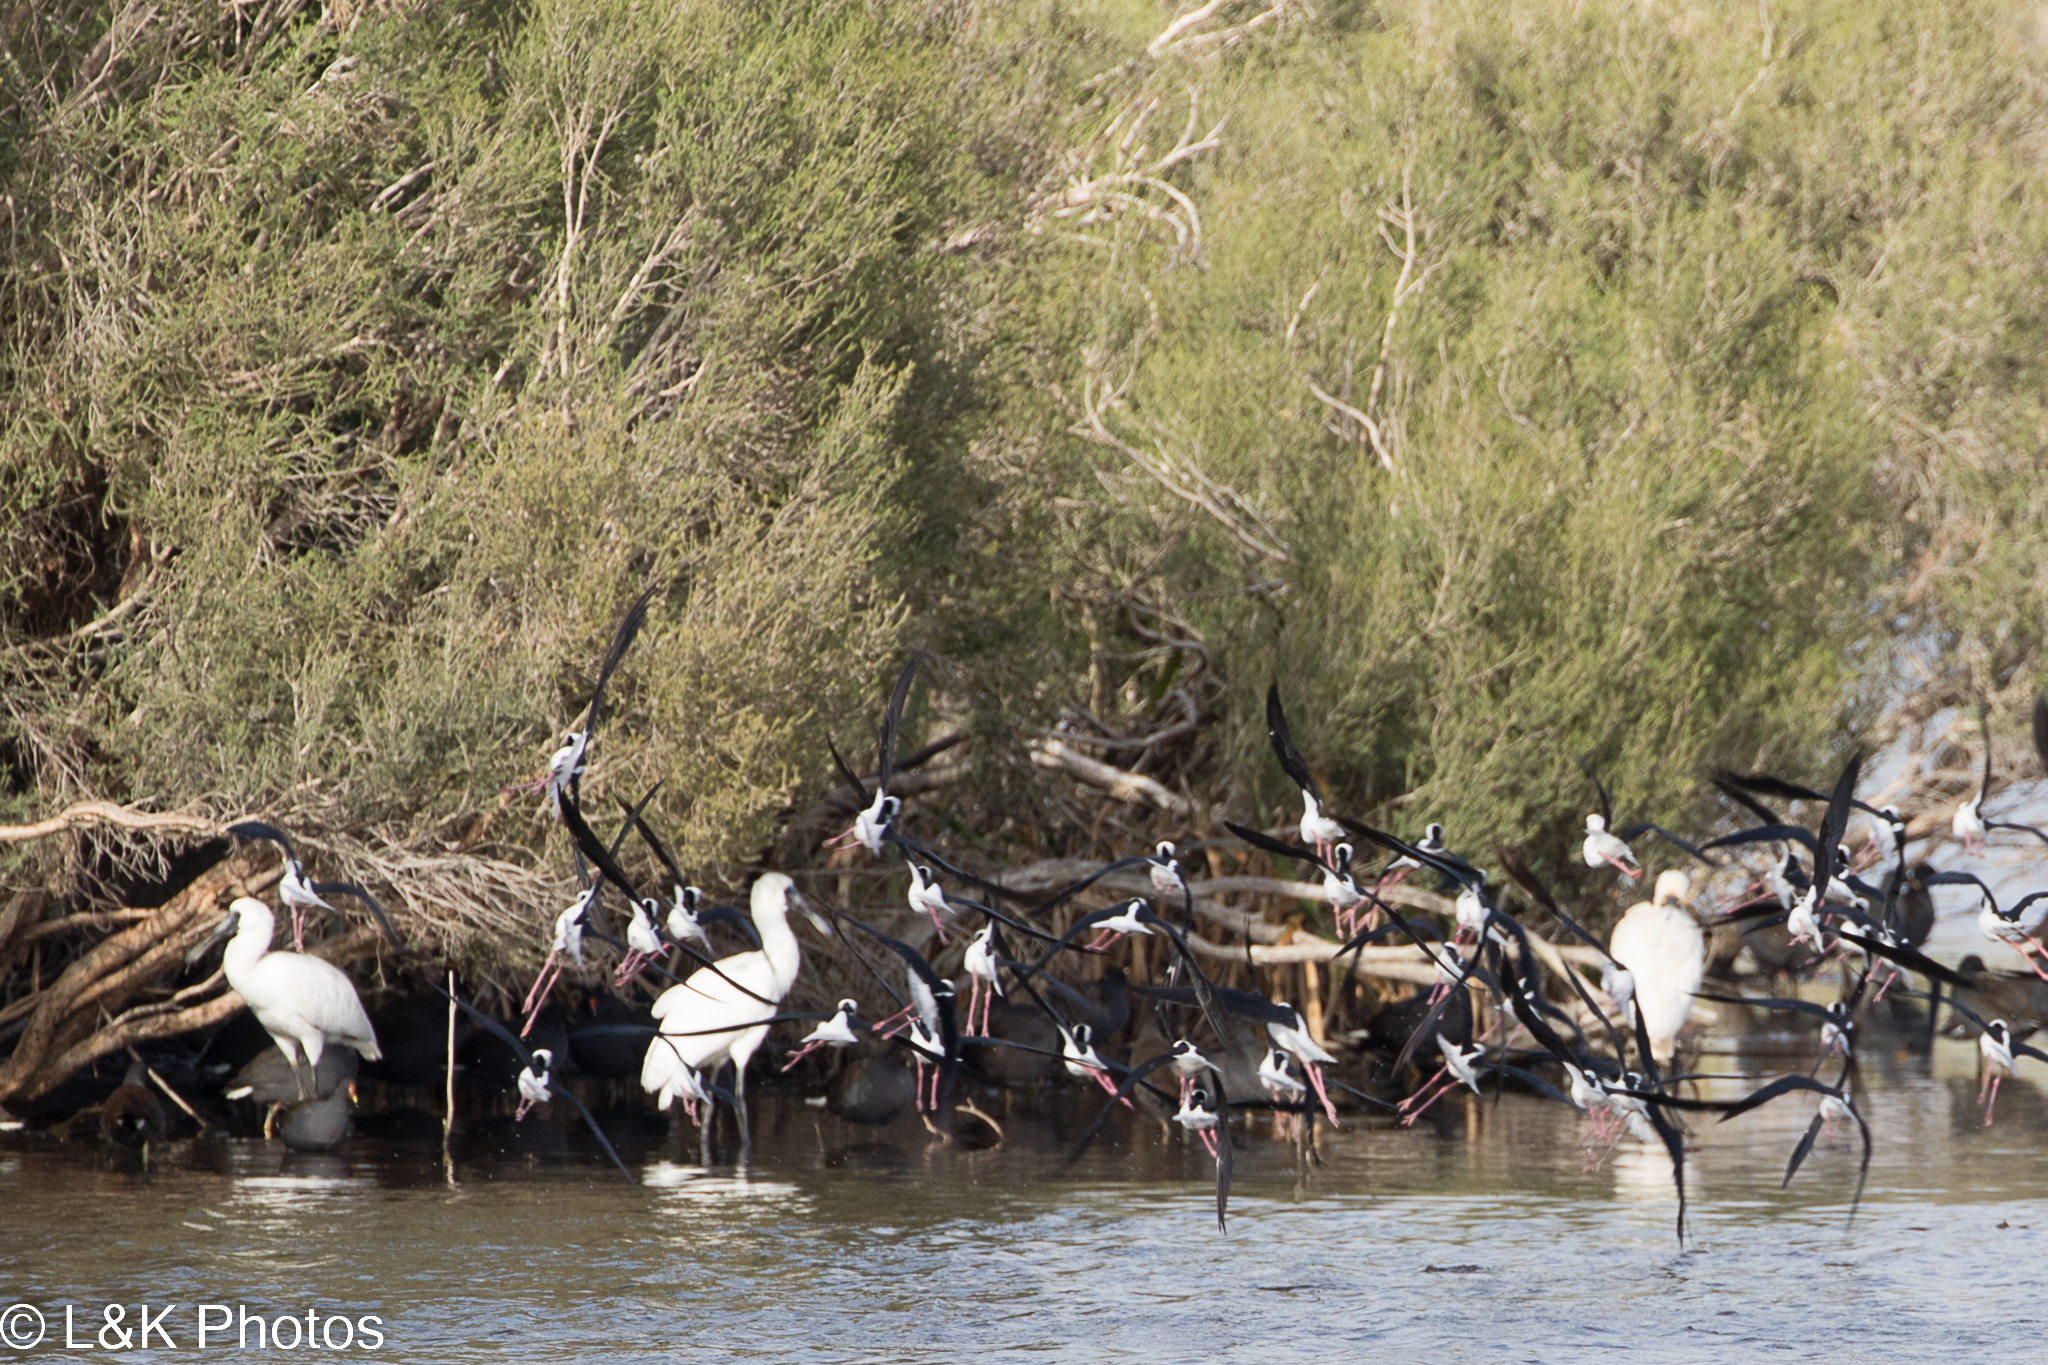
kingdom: Animalia
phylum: Chordata
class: Aves
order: Pelecaniformes
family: Threskiornithidae
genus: Platalea
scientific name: Platalea regia
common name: Royal spoonbill
